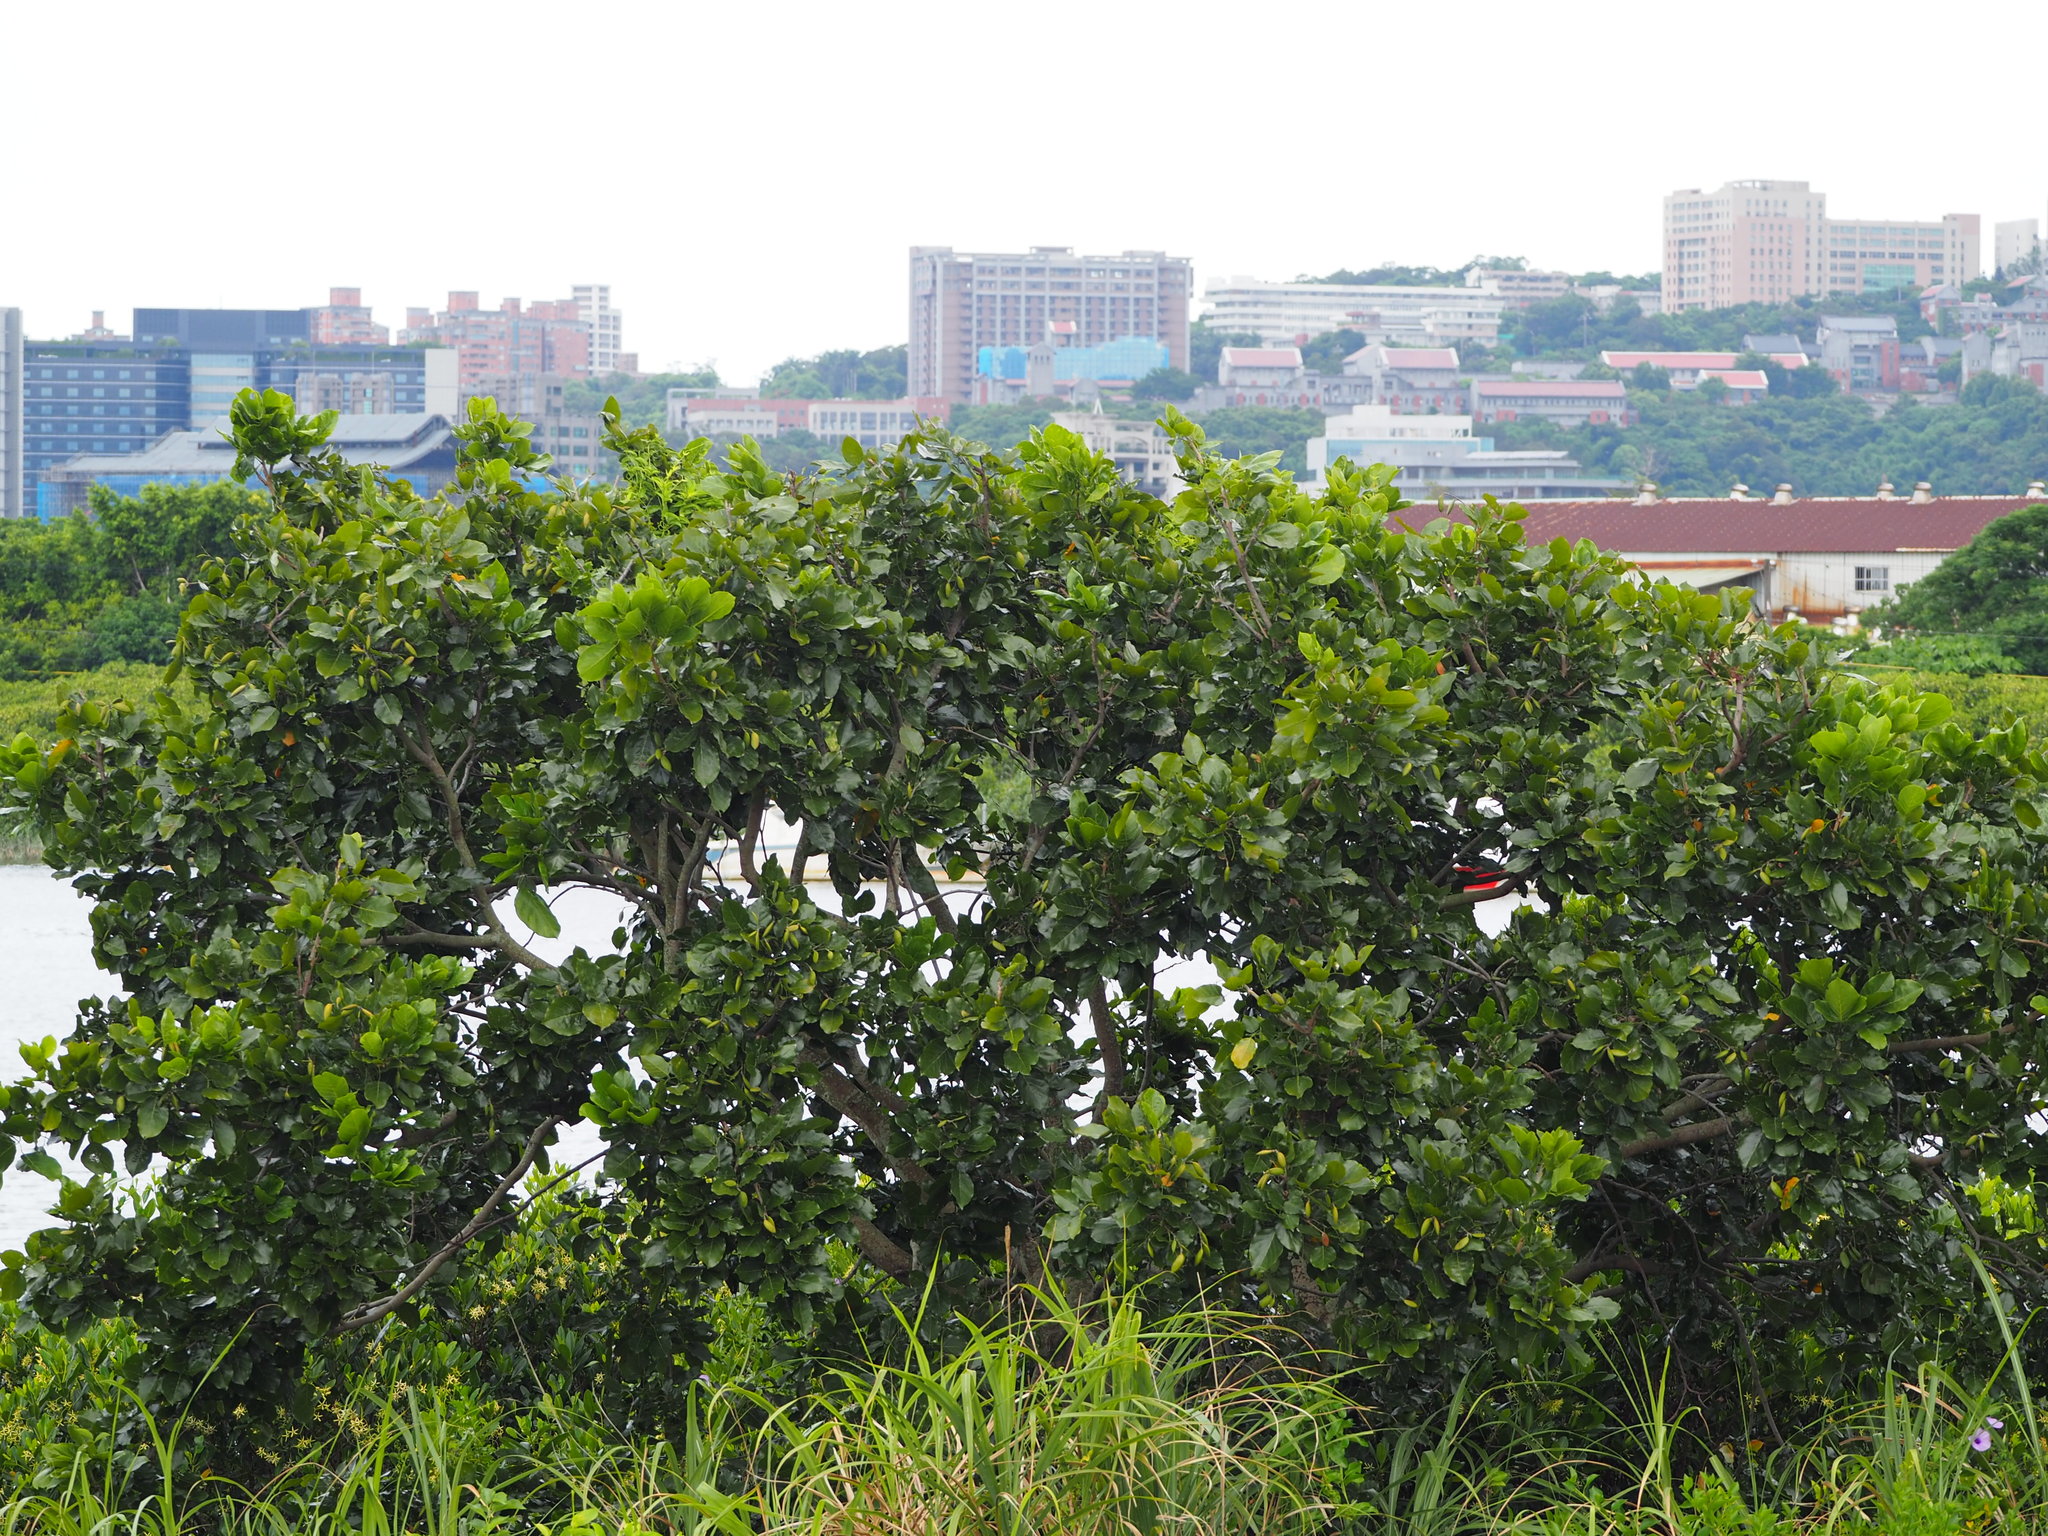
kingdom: Plantae
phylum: Tracheophyta
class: Magnoliopsida
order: Fabales
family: Fabaceae
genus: Pongamia
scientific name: Pongamia pinnata
